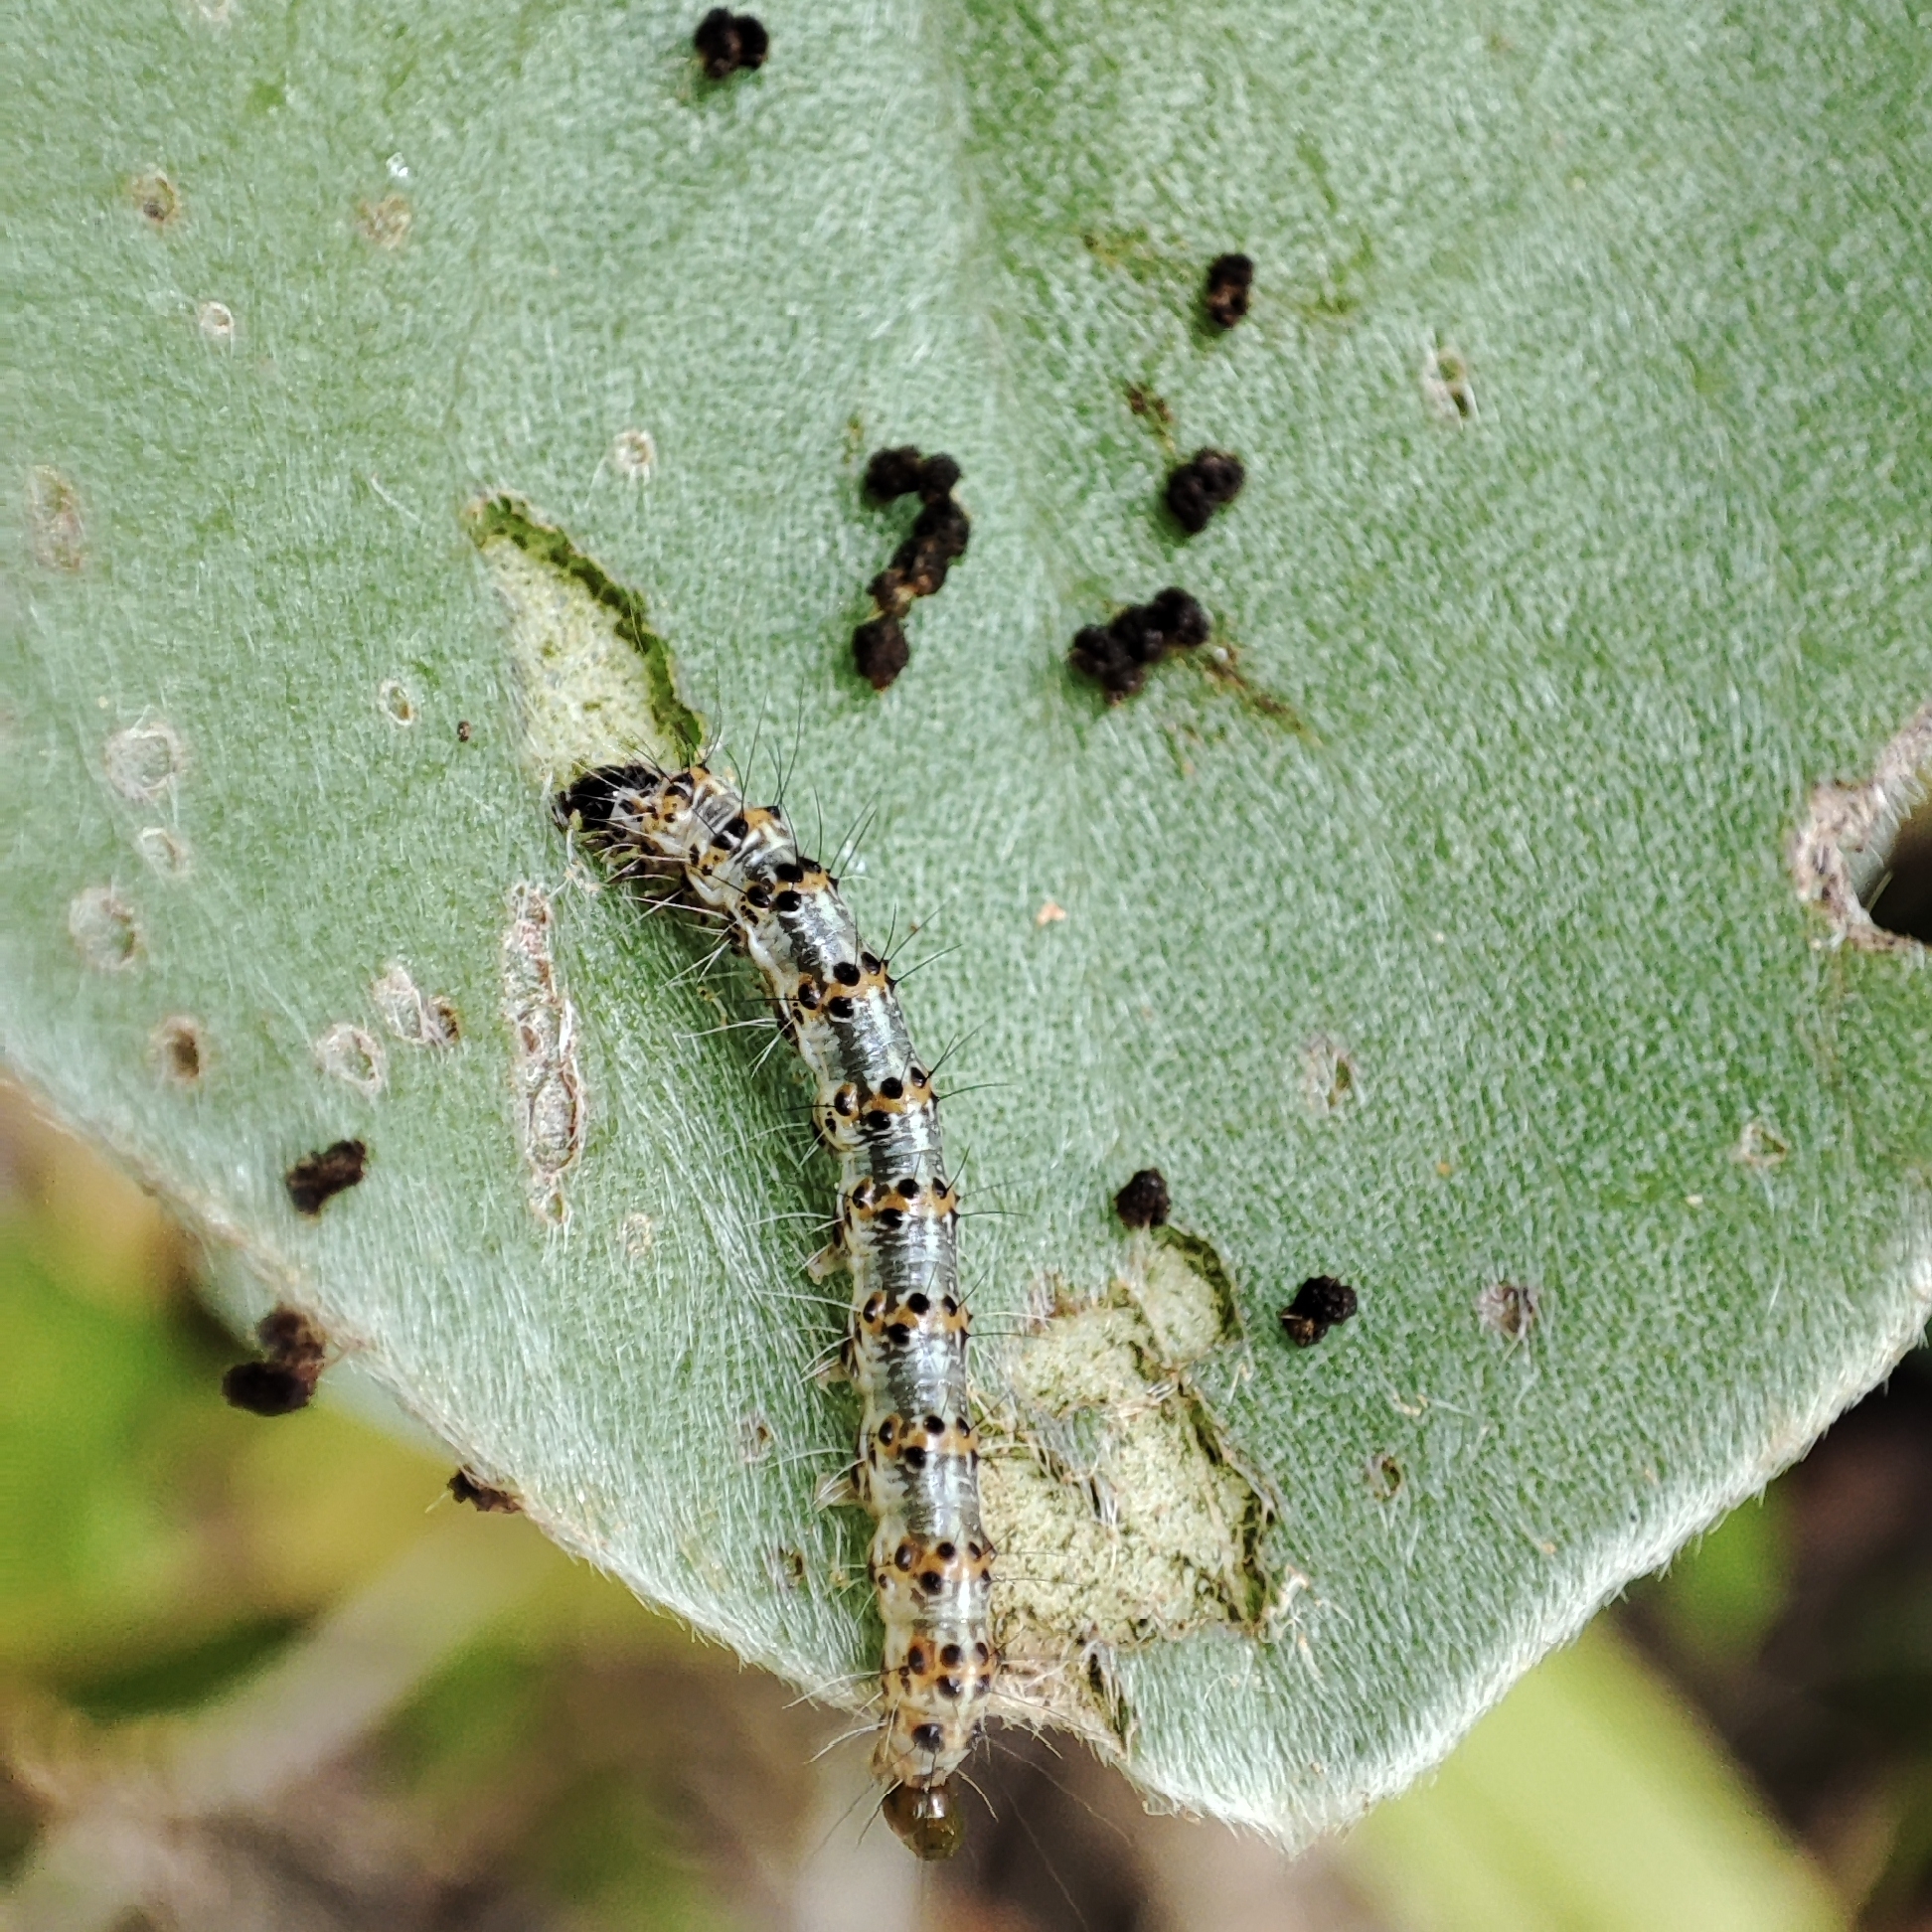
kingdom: Animalia
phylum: Arthropoda
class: Insecta
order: Lepidoptera
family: Erebidae
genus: Utetheisa
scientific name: Utetheisa pulchelloides
